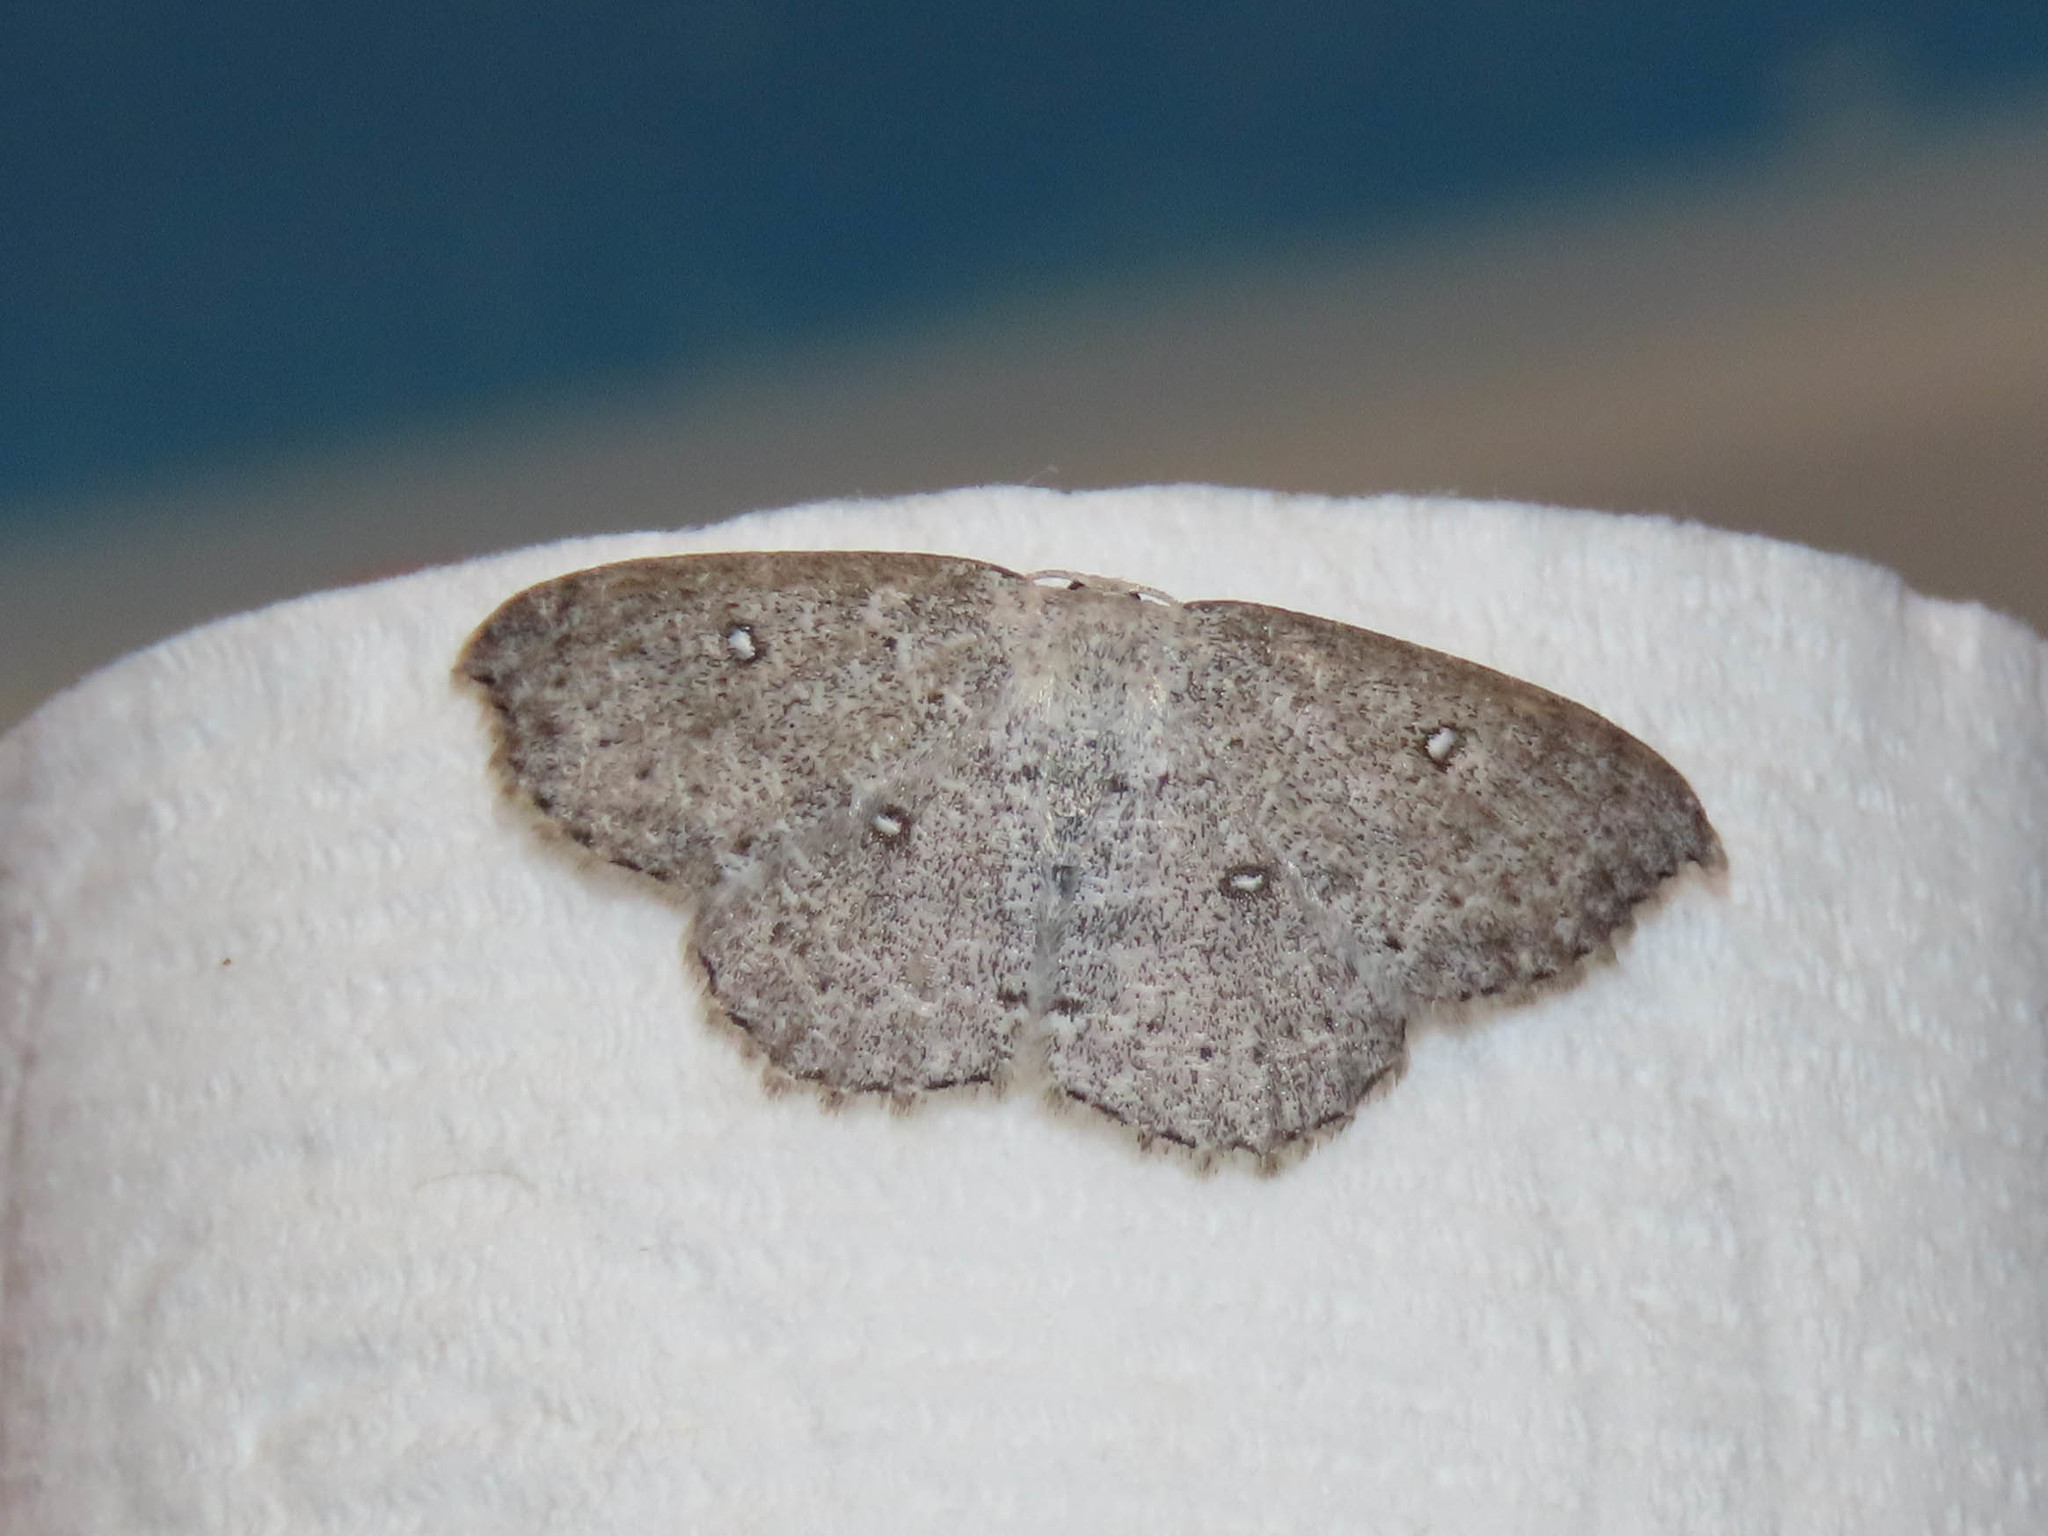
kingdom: Animalia
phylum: Arthropoda
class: Insecta
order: Lepidoptera
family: Geometridae
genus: Cyclophora
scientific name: Cyclophora pendulinaria
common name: Sweet fern geometer
